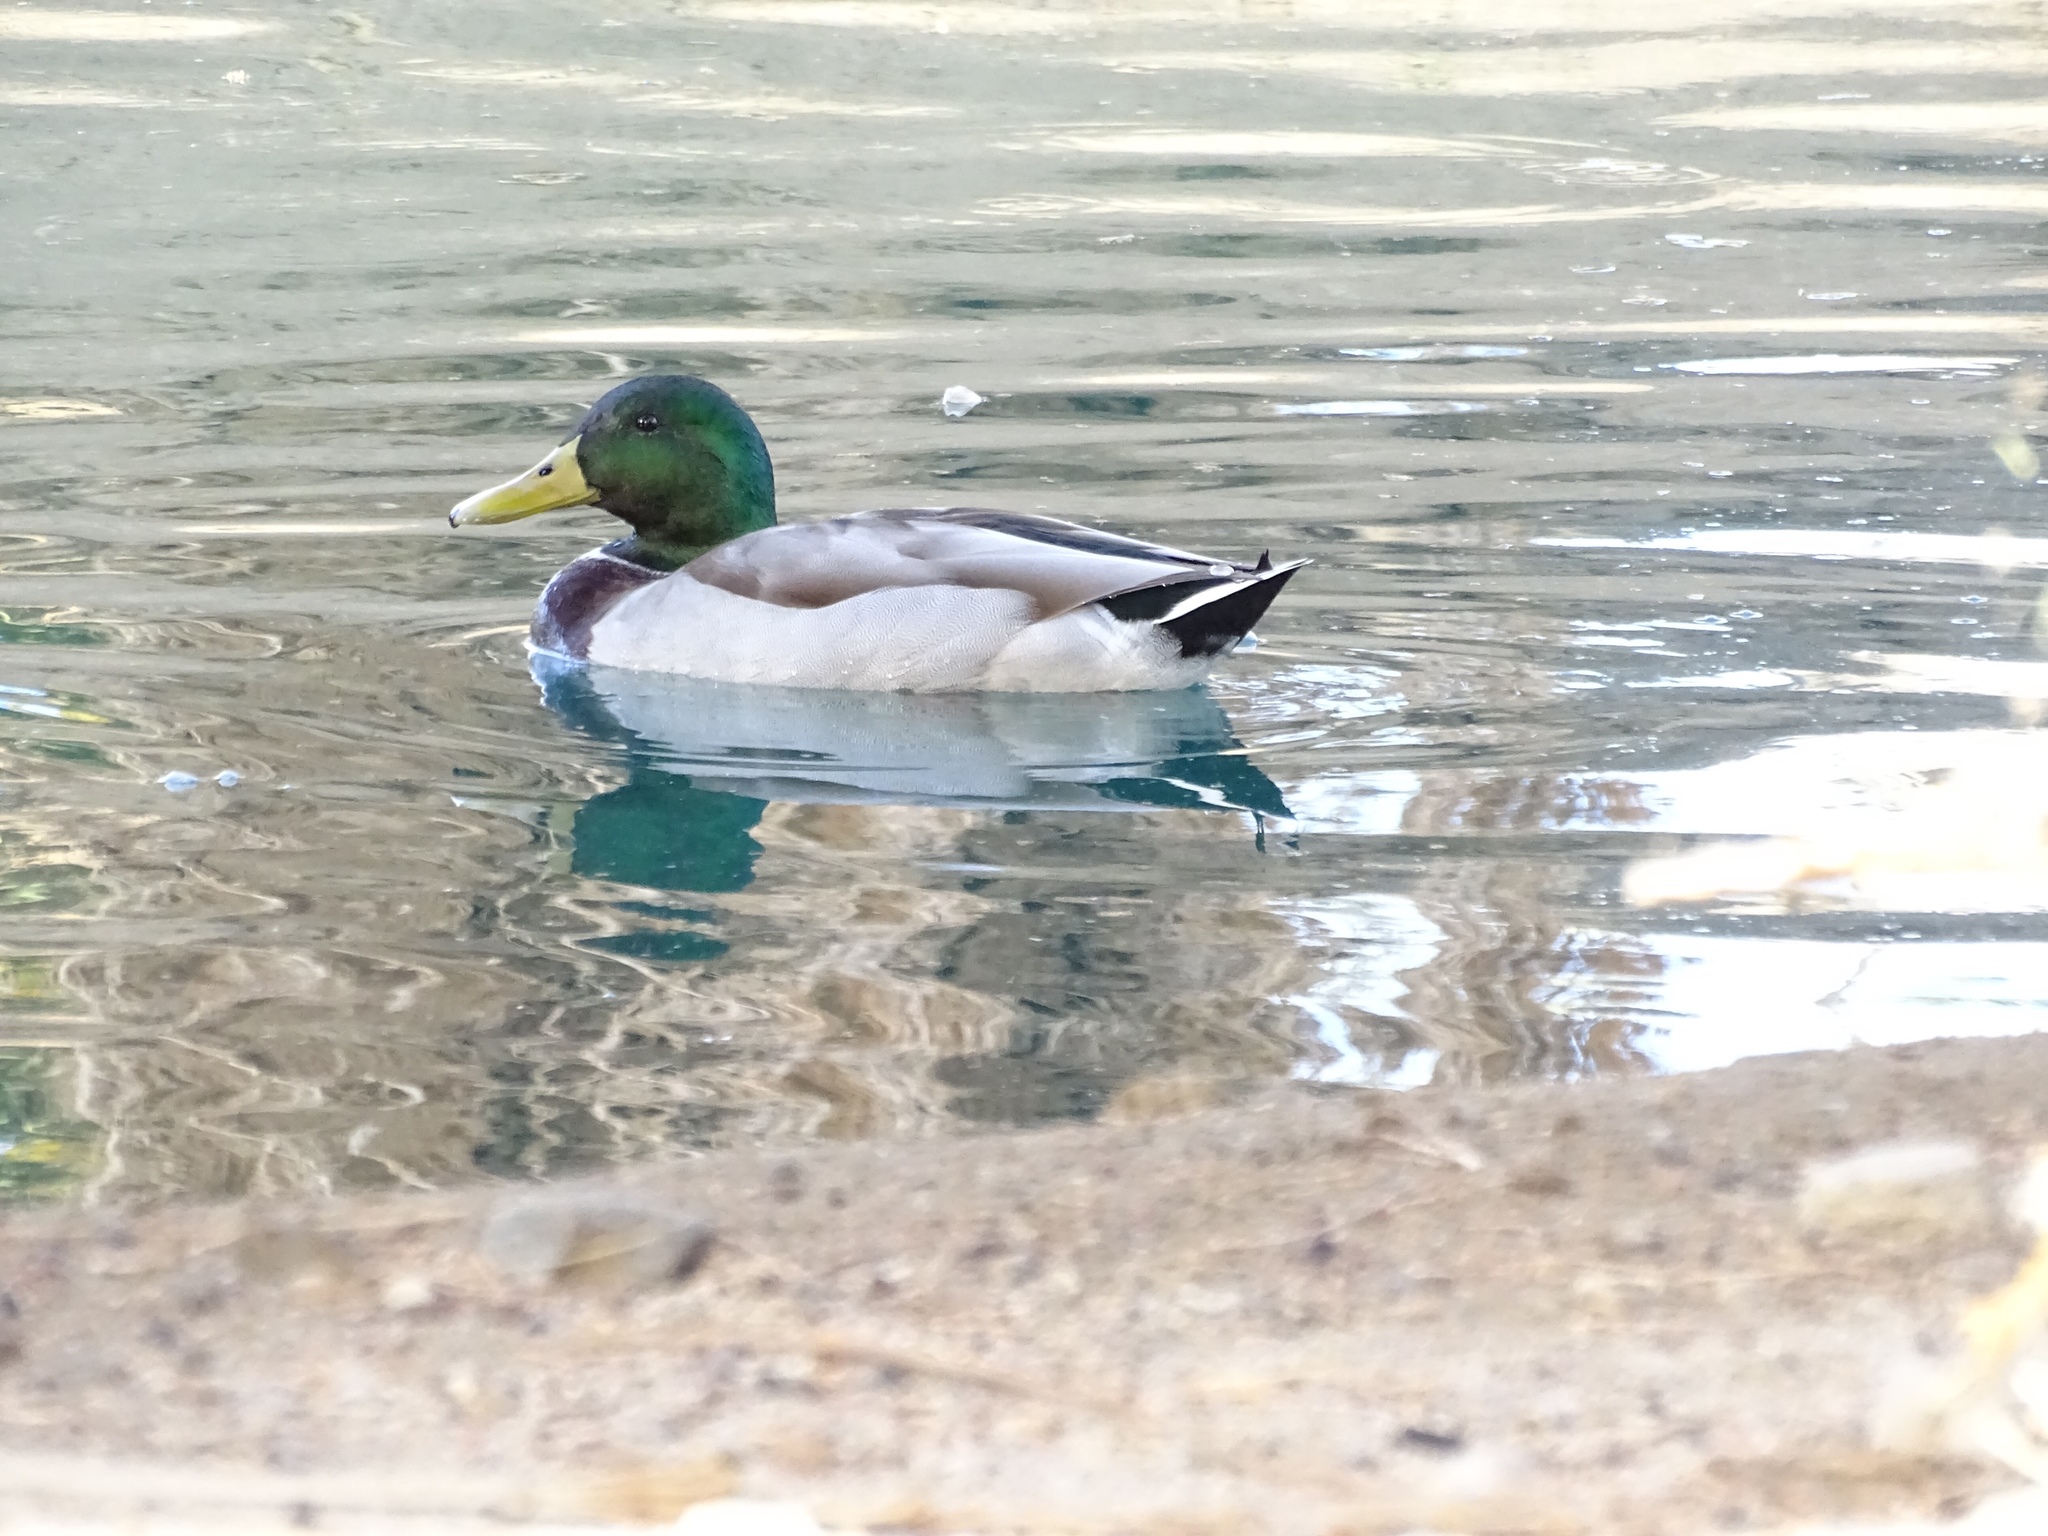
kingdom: Animalia
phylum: Chordata
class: Aves
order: Anseriformes
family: Anatidae
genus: Anas
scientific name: Anas platyrhynchos
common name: Mallard
